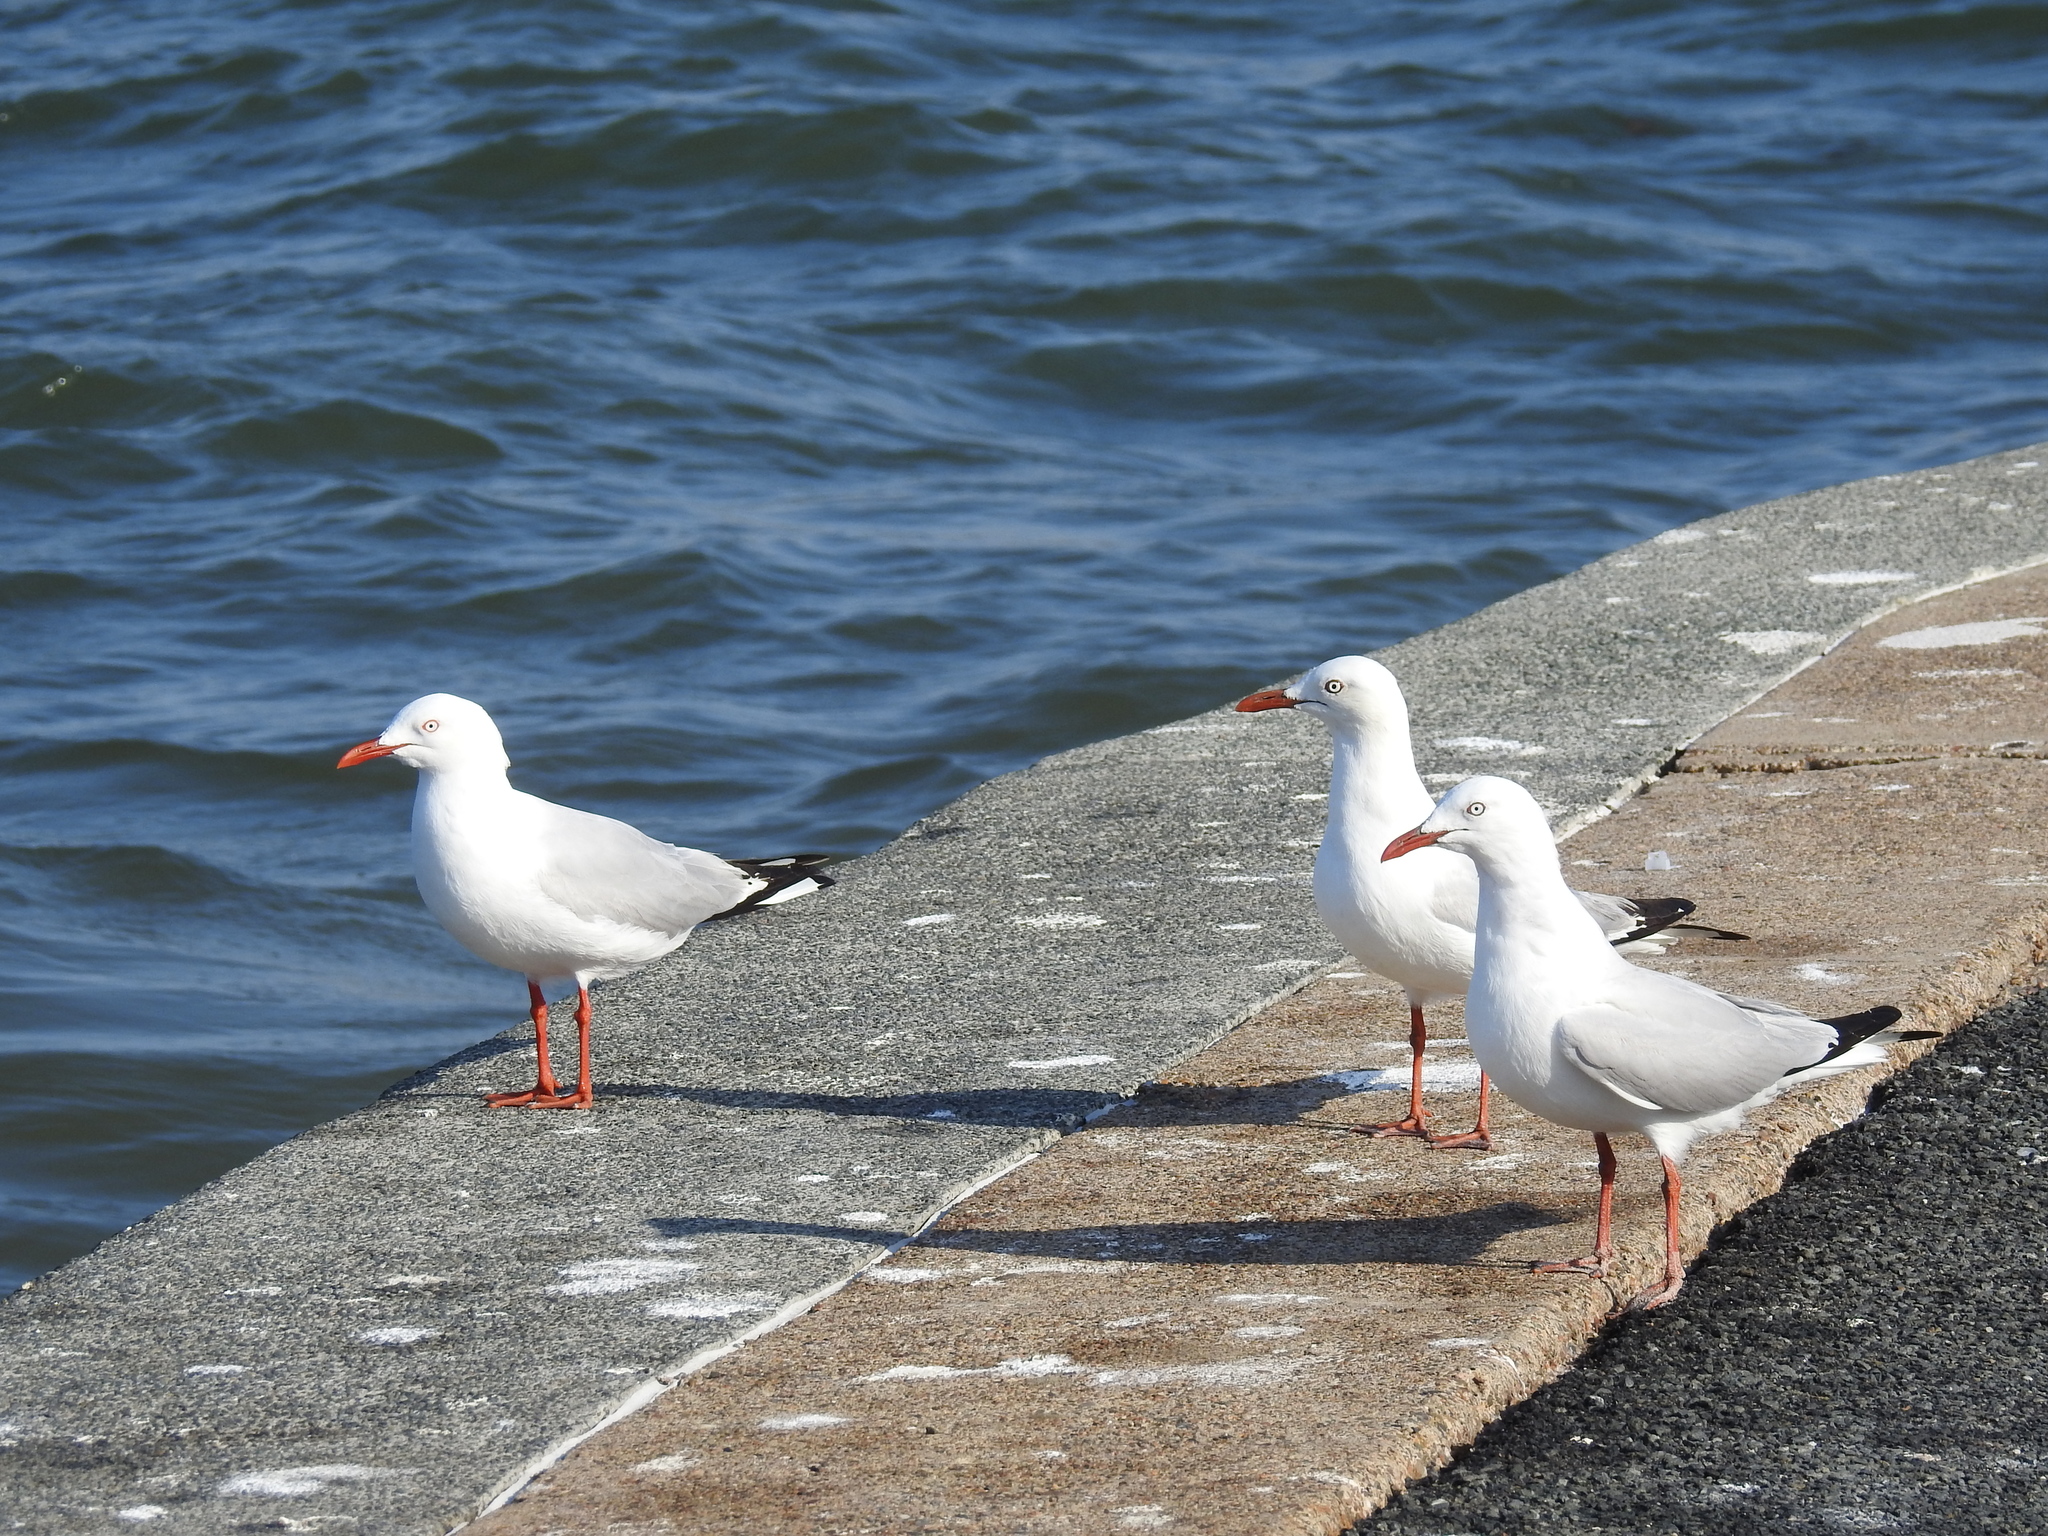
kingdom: Animalia
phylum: Chordata
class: Aves
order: Charadriiformes
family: Laridae
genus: Chroicocephalus
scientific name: Chroicocephalus novaehollandiae
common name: Silver gull
